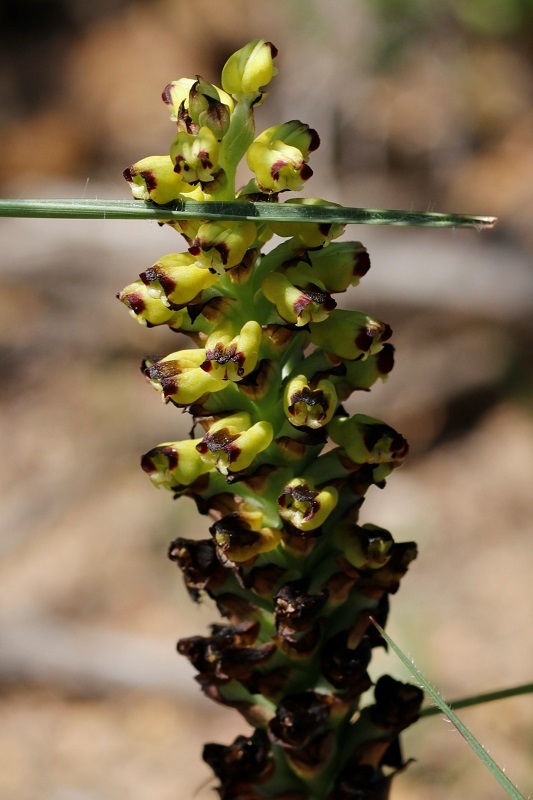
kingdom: Plantae
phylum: Tracheophyta
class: Liliopsida
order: Asparagales
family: Orchidaceae
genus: Corycium
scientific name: Corycium orobanchoides
